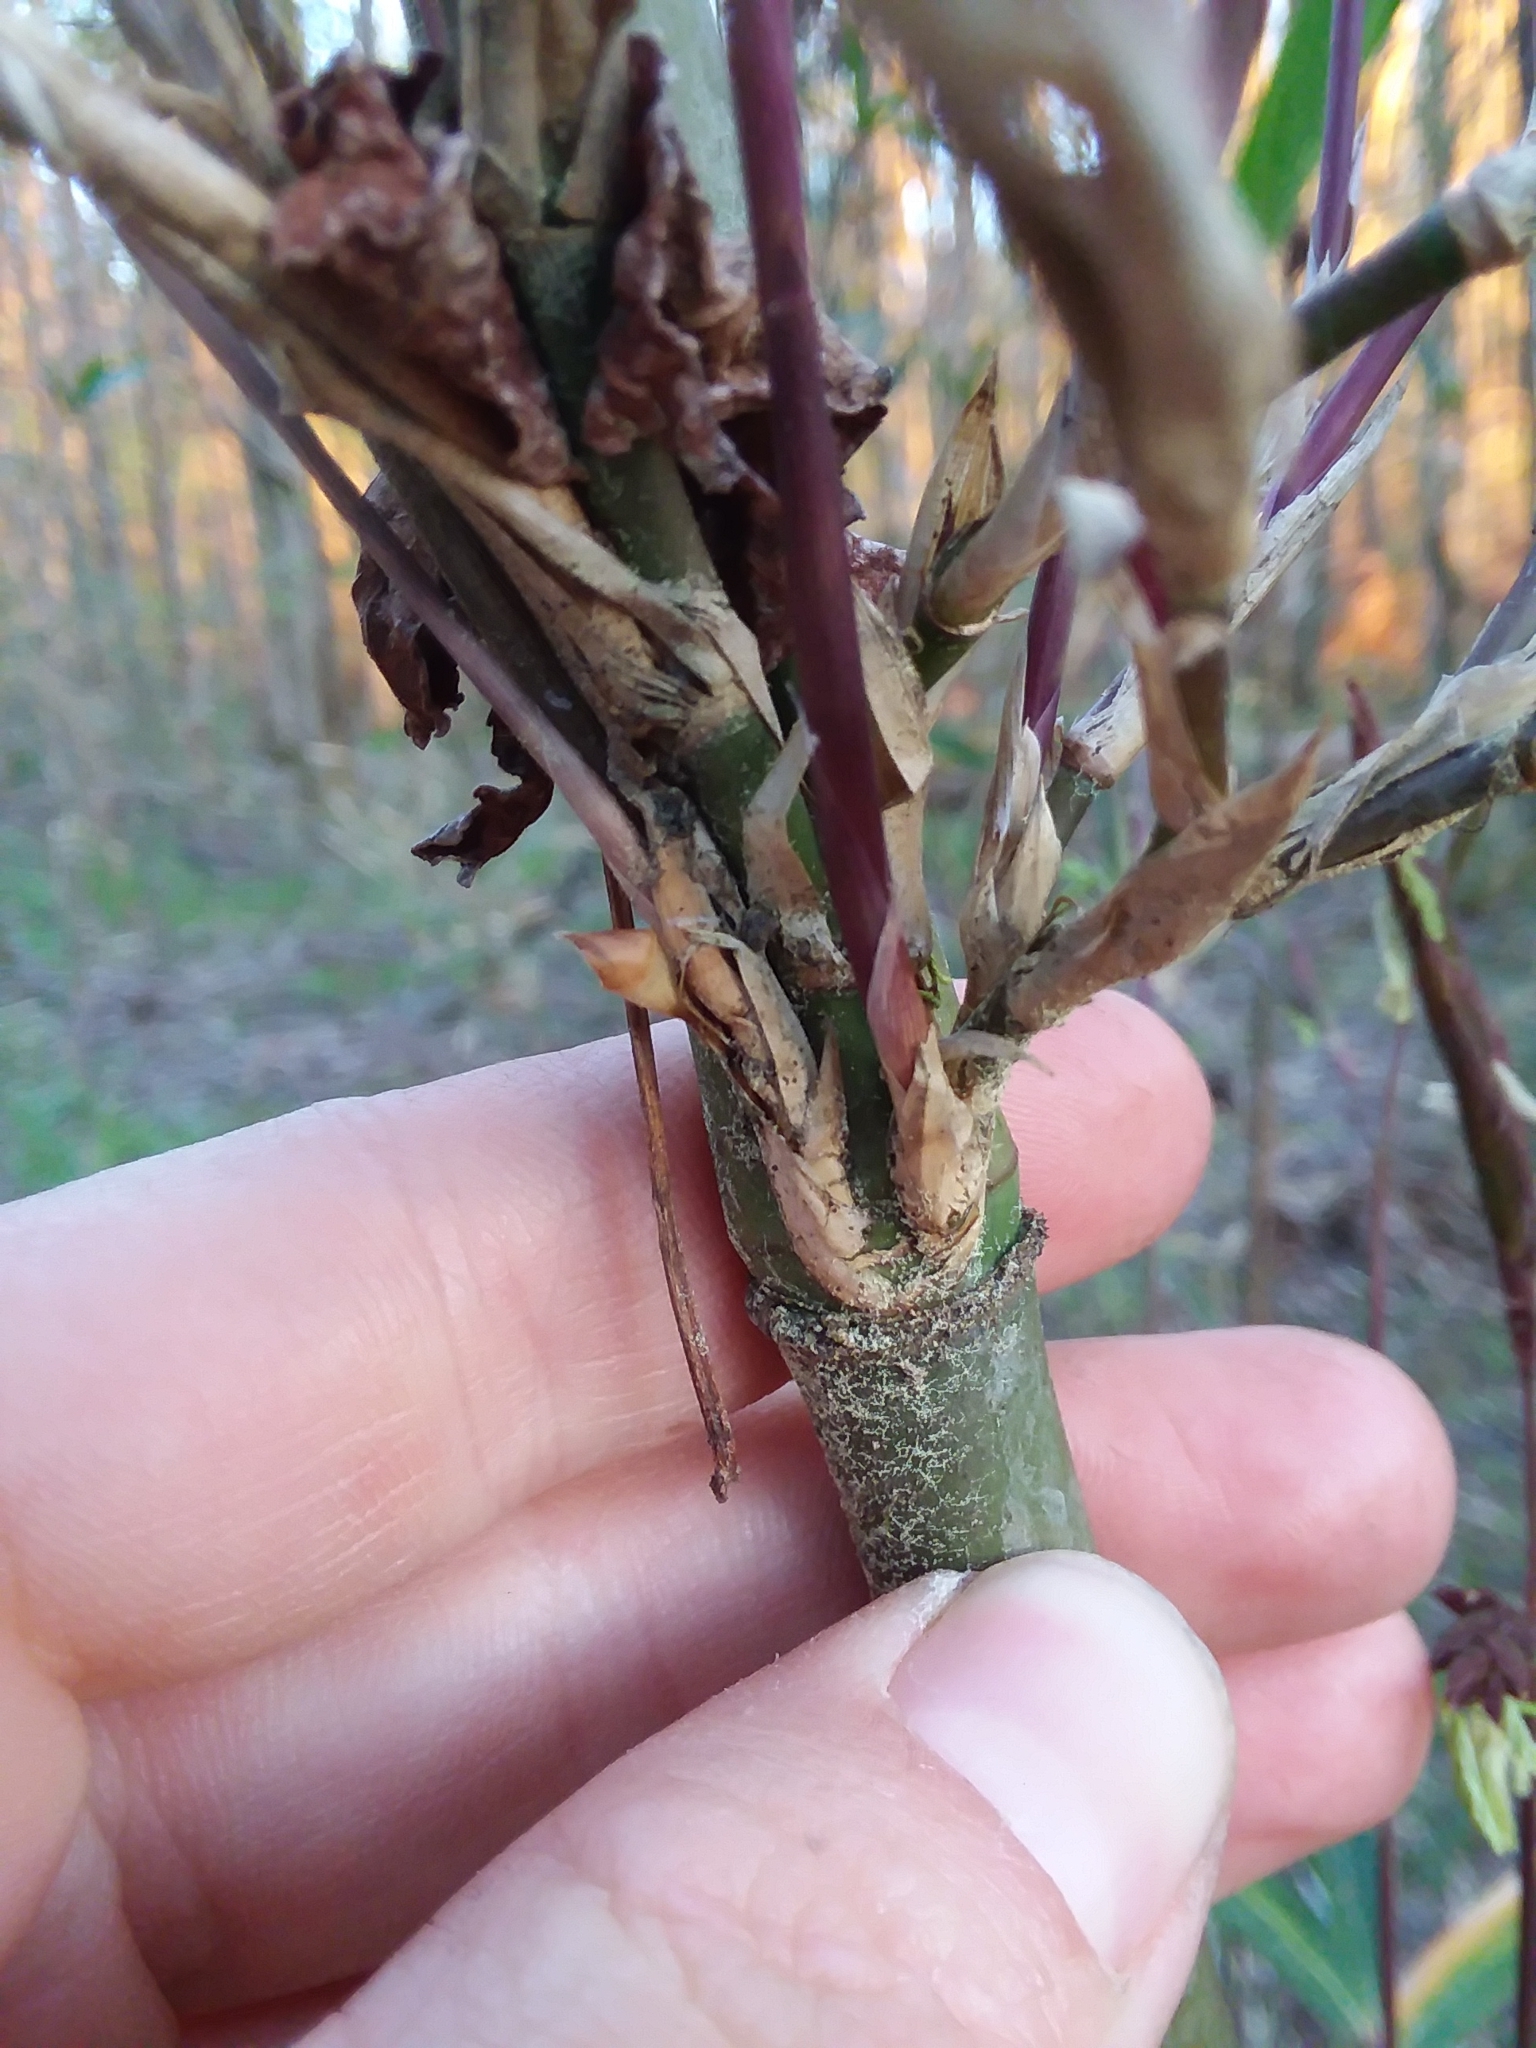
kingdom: Plantae
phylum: Tracheophyta
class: Liliopsida
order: Poales
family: Poaceae
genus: Arundinaria
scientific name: Arundinaria gigantea
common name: Giant cane
